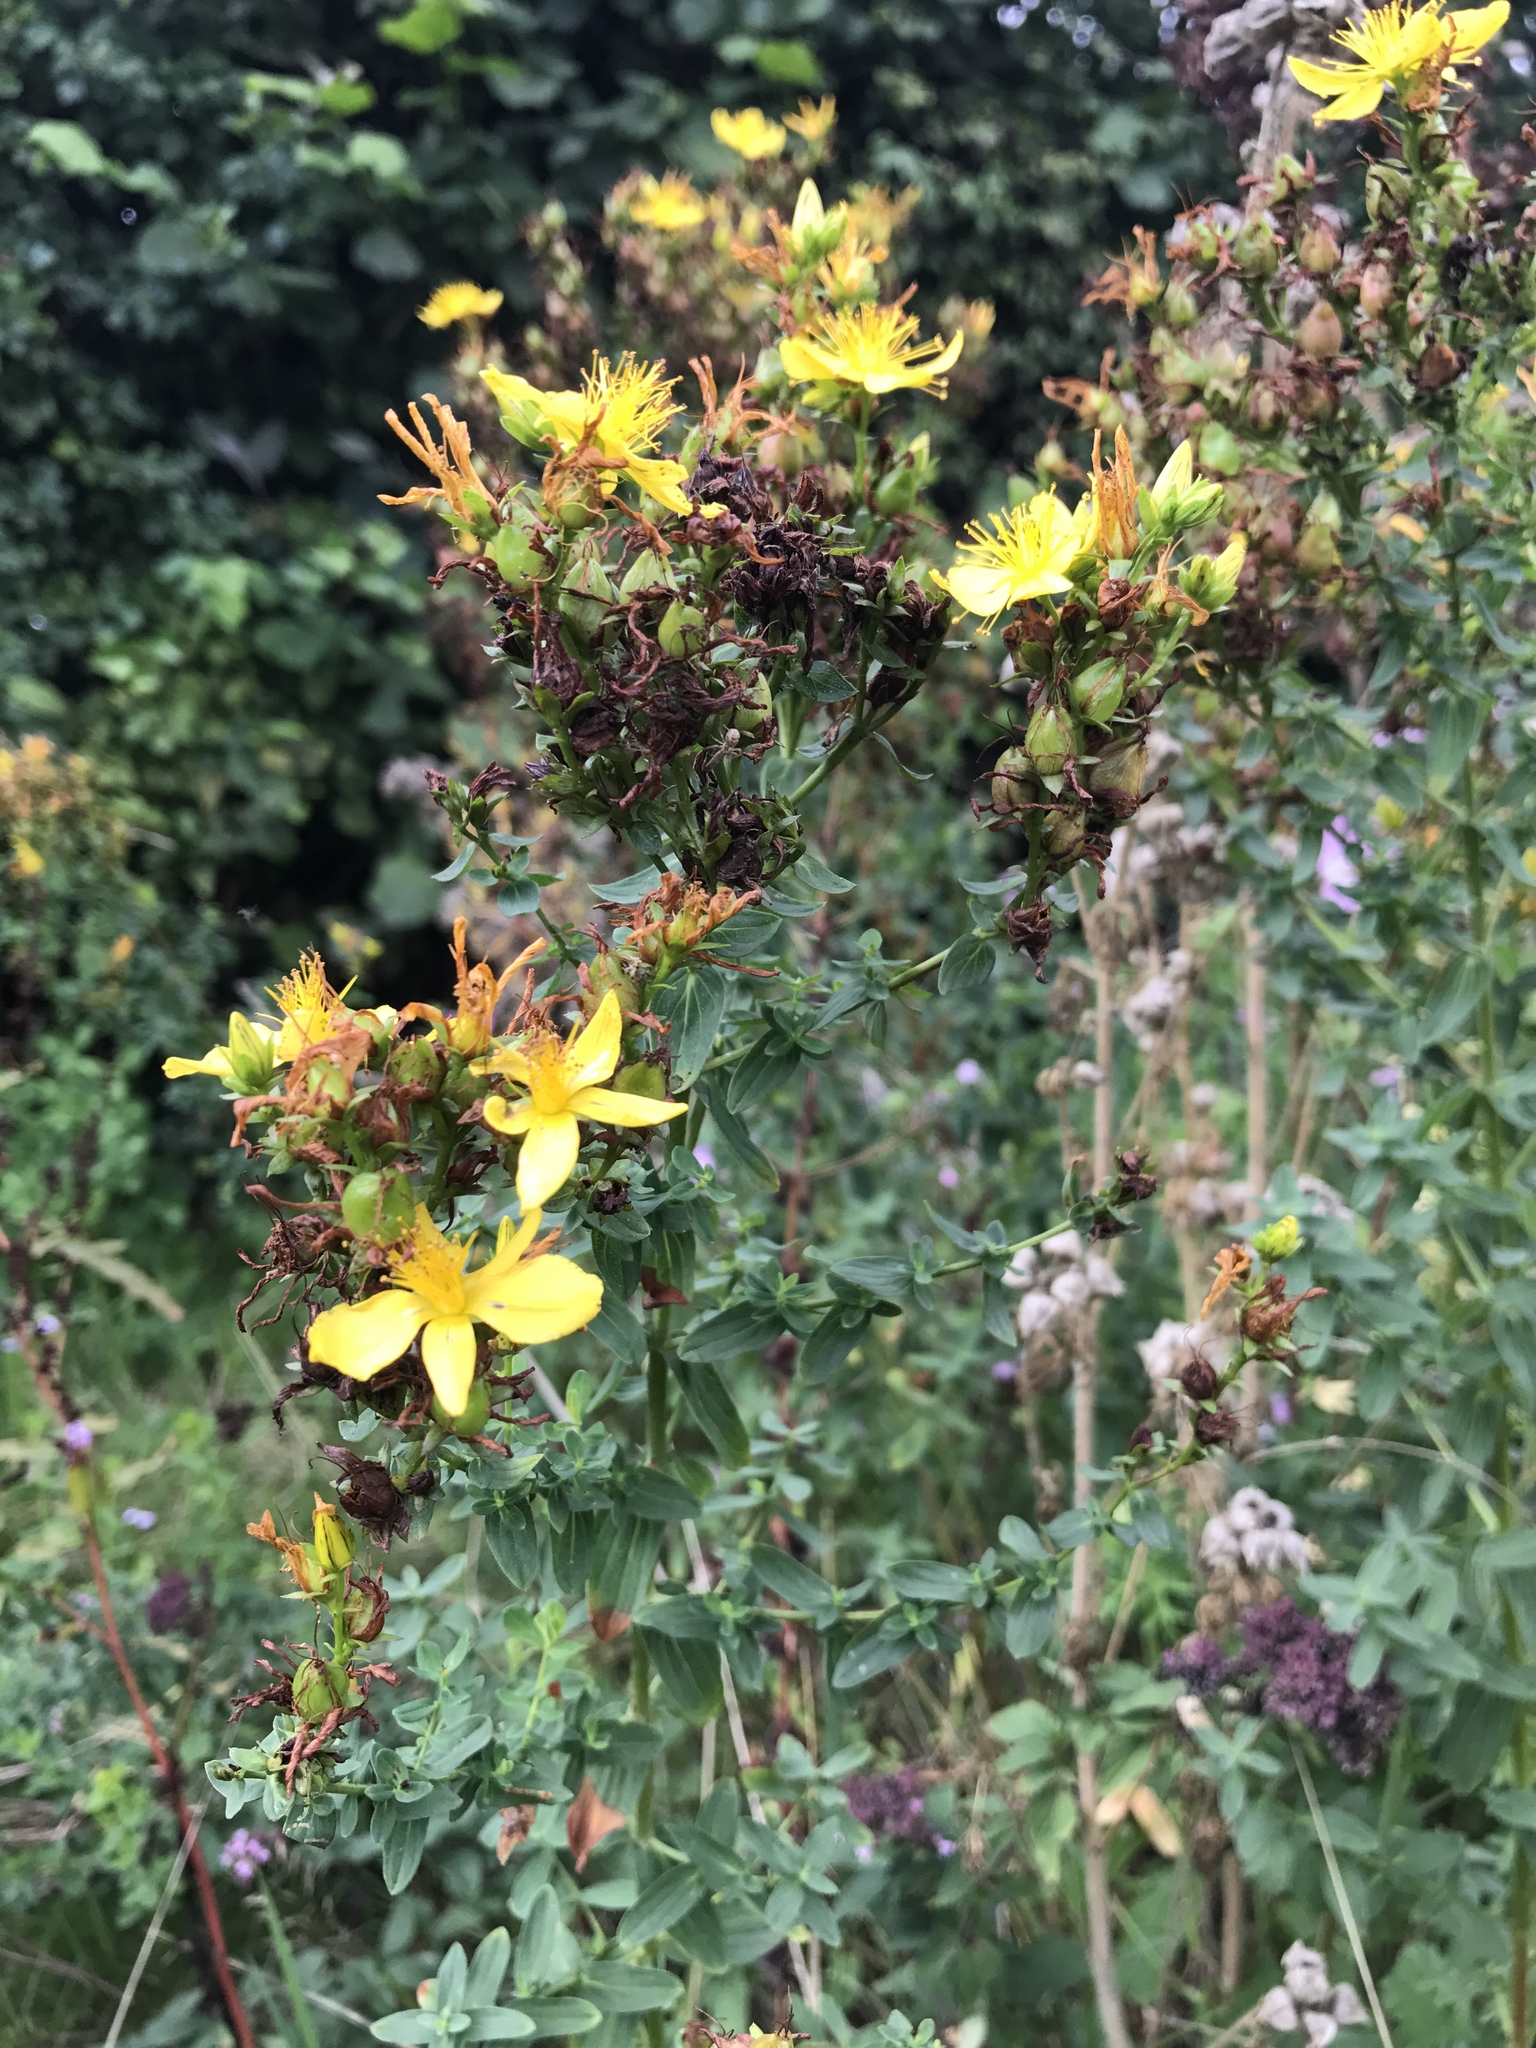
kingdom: Plantae
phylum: Tracheophyta
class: Magnoliopsida
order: Malpighiales
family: Hypericaceae
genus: Hypericum
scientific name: Hypericum perforatum
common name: Common st. johnswort
